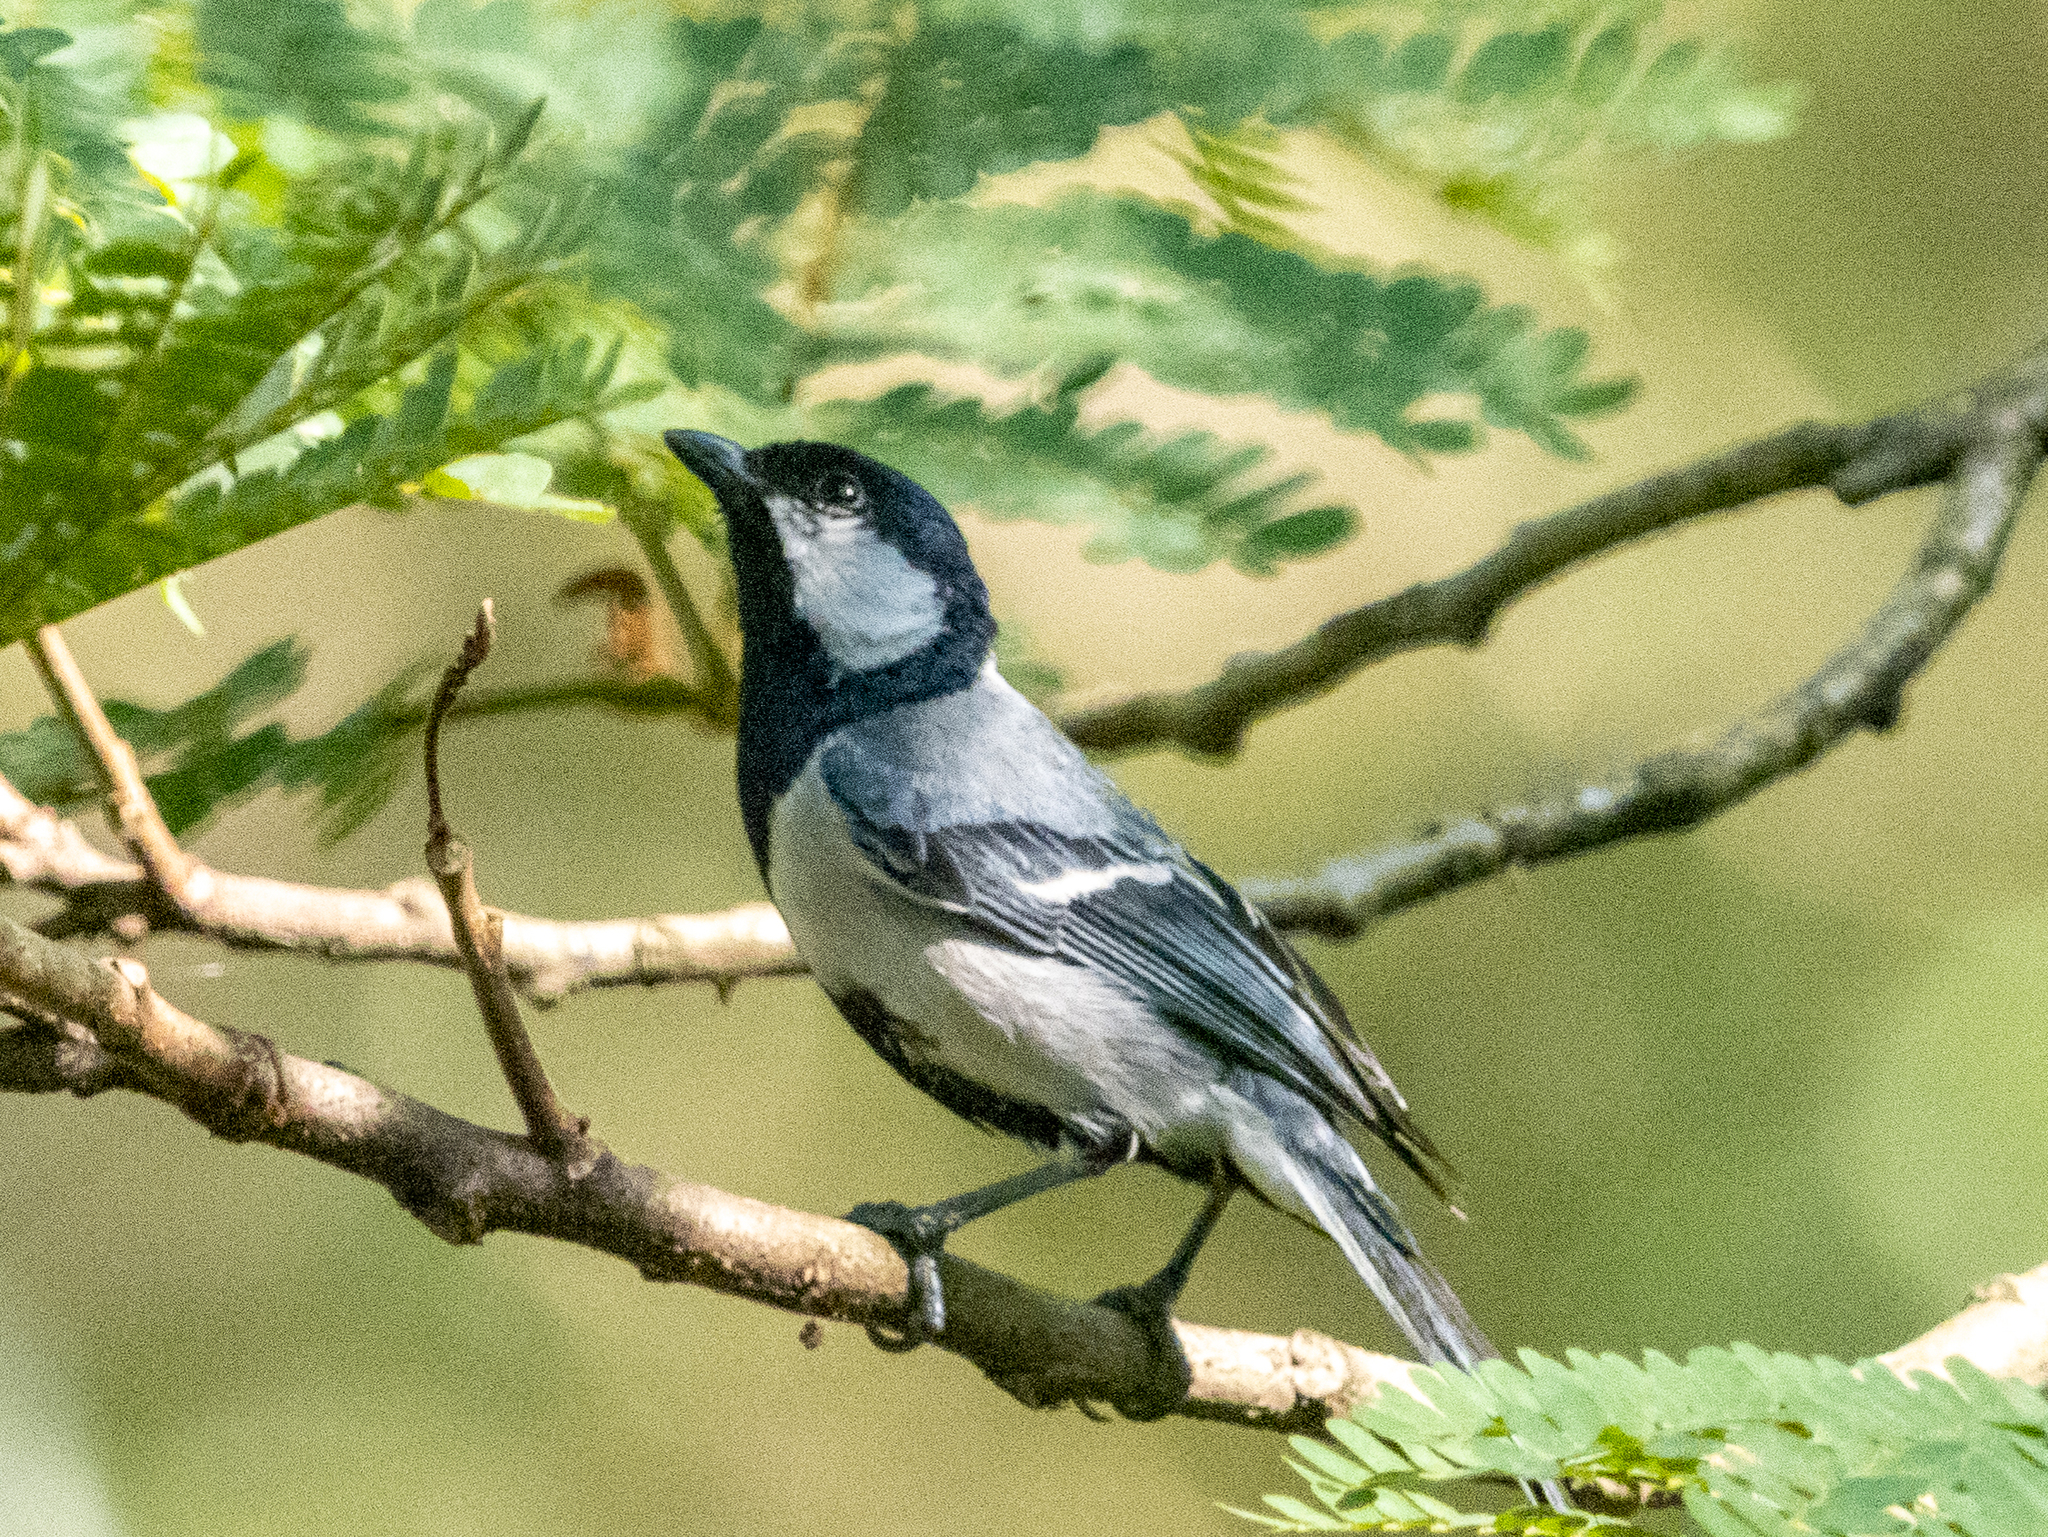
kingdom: Animalia
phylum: Chordata
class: Aves
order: Passeriformes
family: Paridae
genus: Parus
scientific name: Parus cinereus
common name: Cinereous tit
